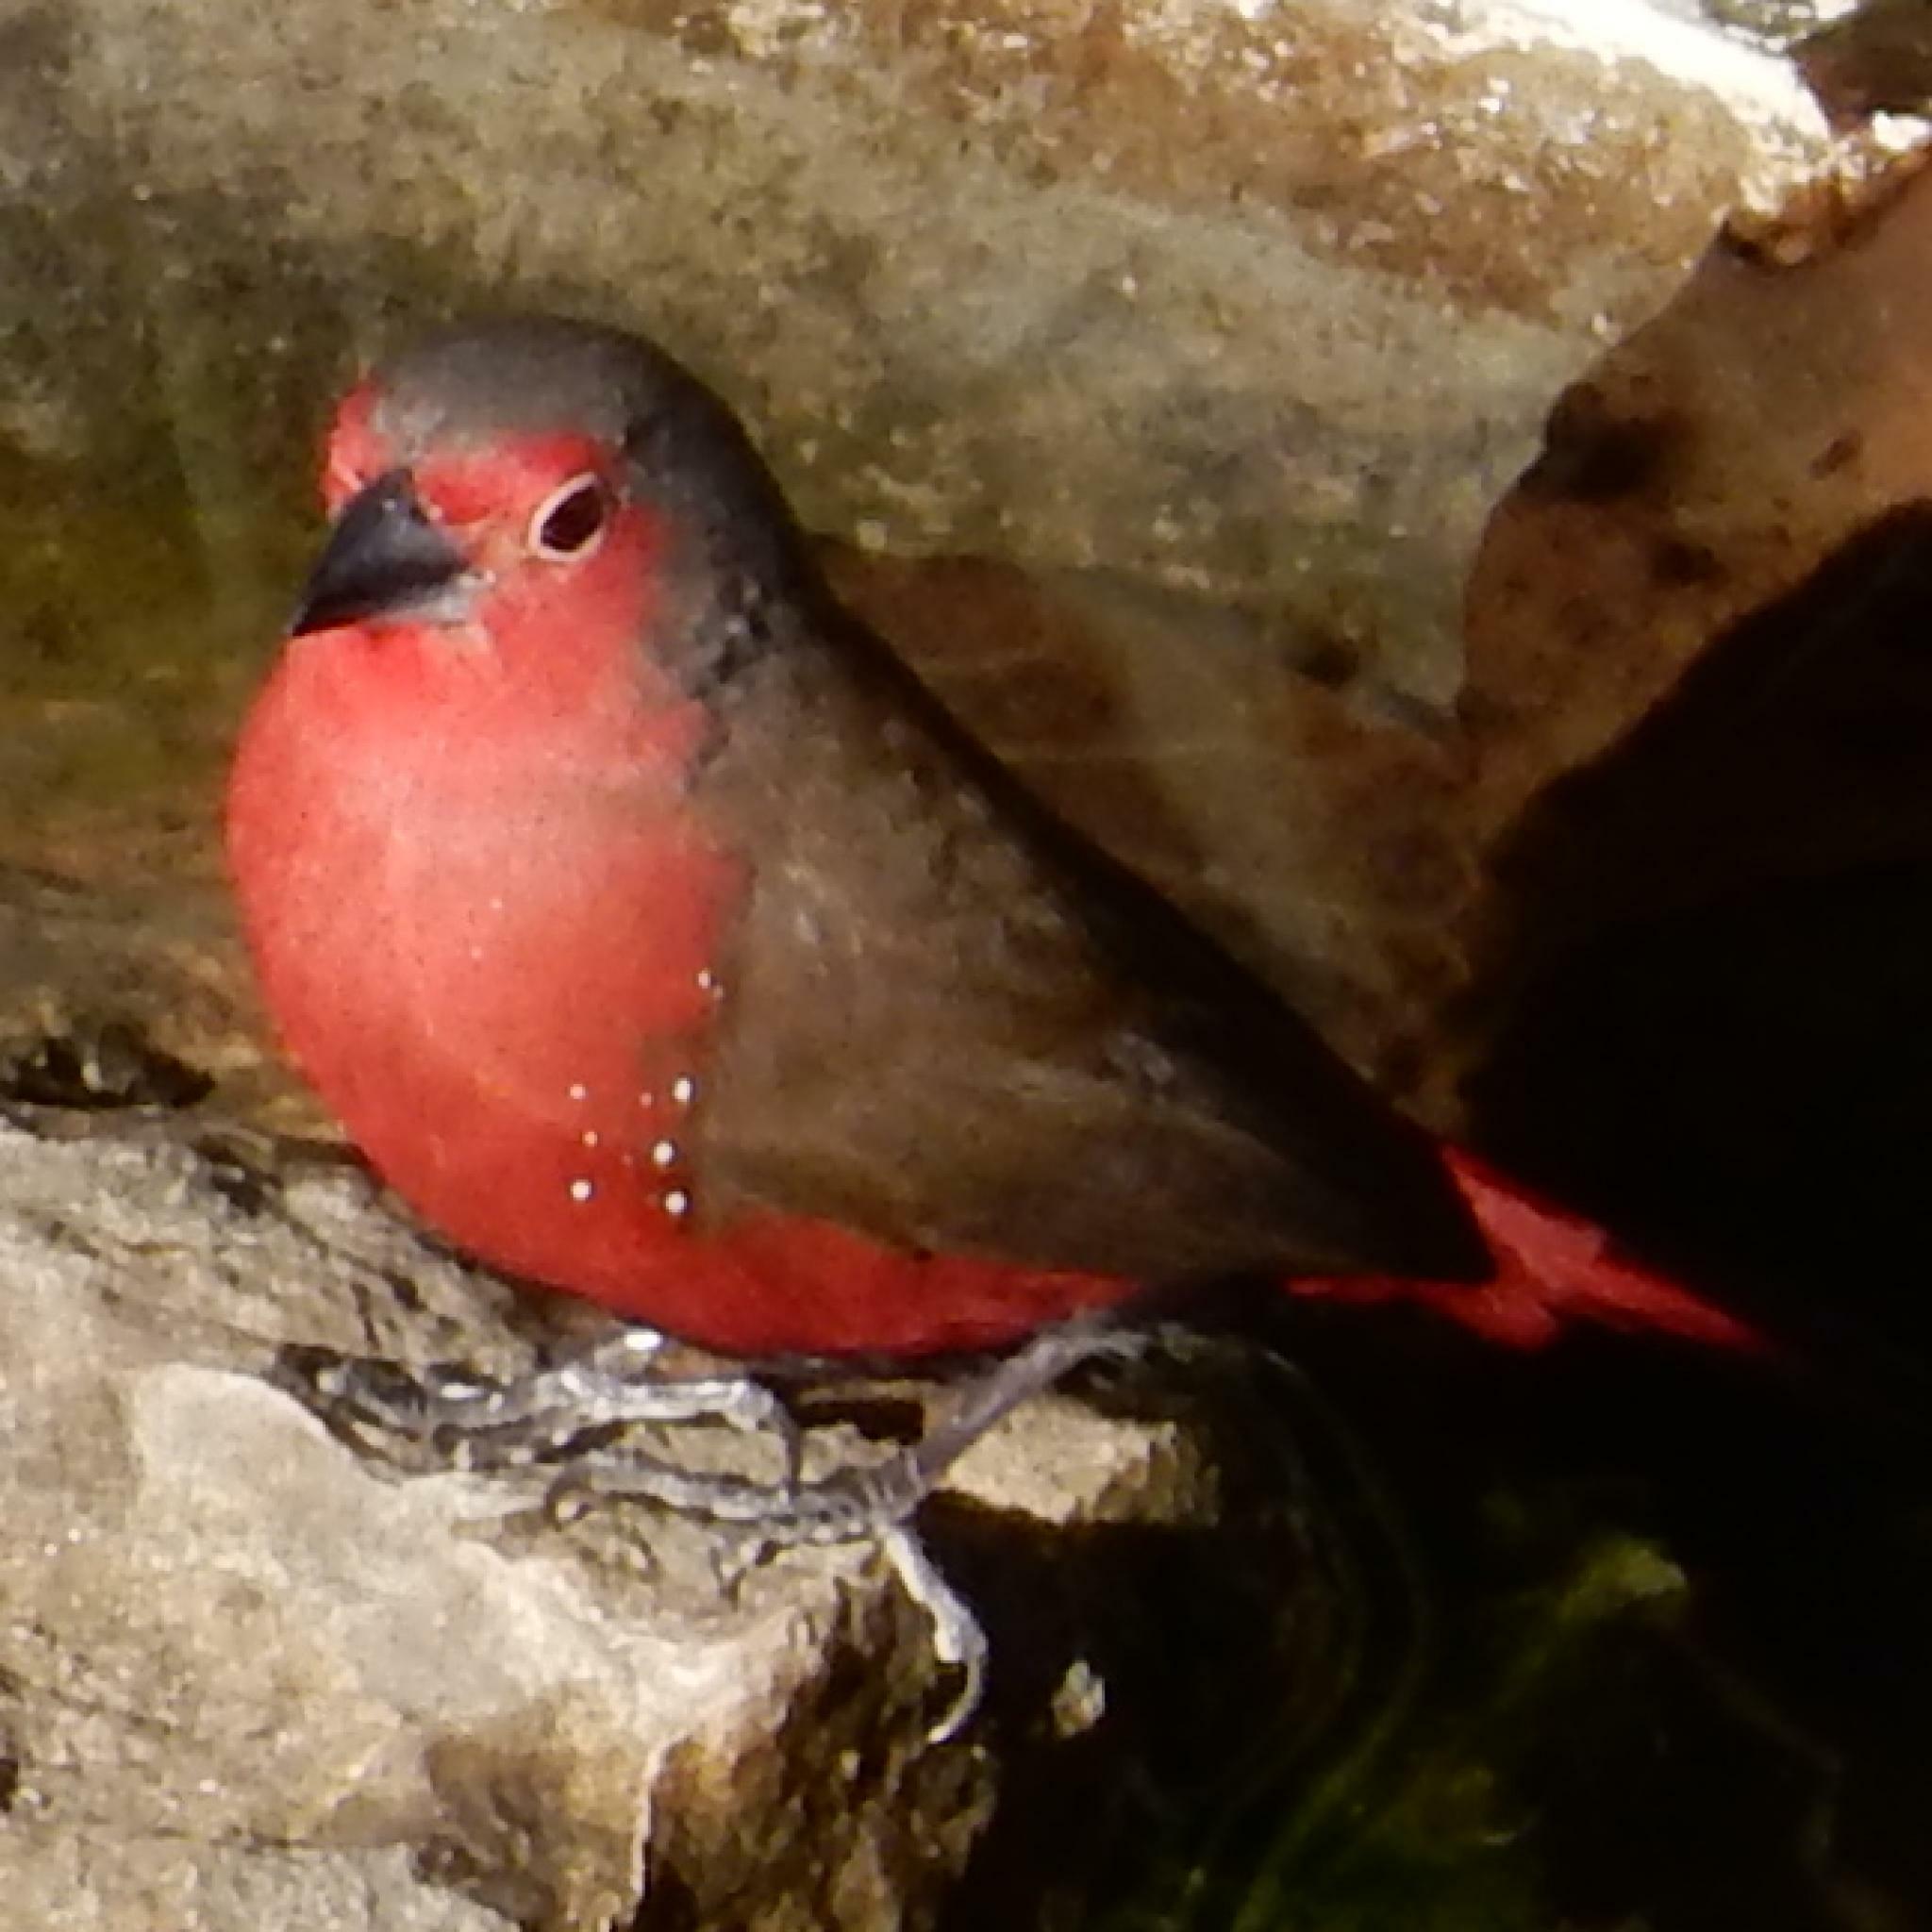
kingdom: Animalia
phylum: Chordata
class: Aves
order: Passeriformes
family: Estrildidae
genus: Lagonosticta
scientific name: Lagonosticta rubricata
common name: African firefinch
